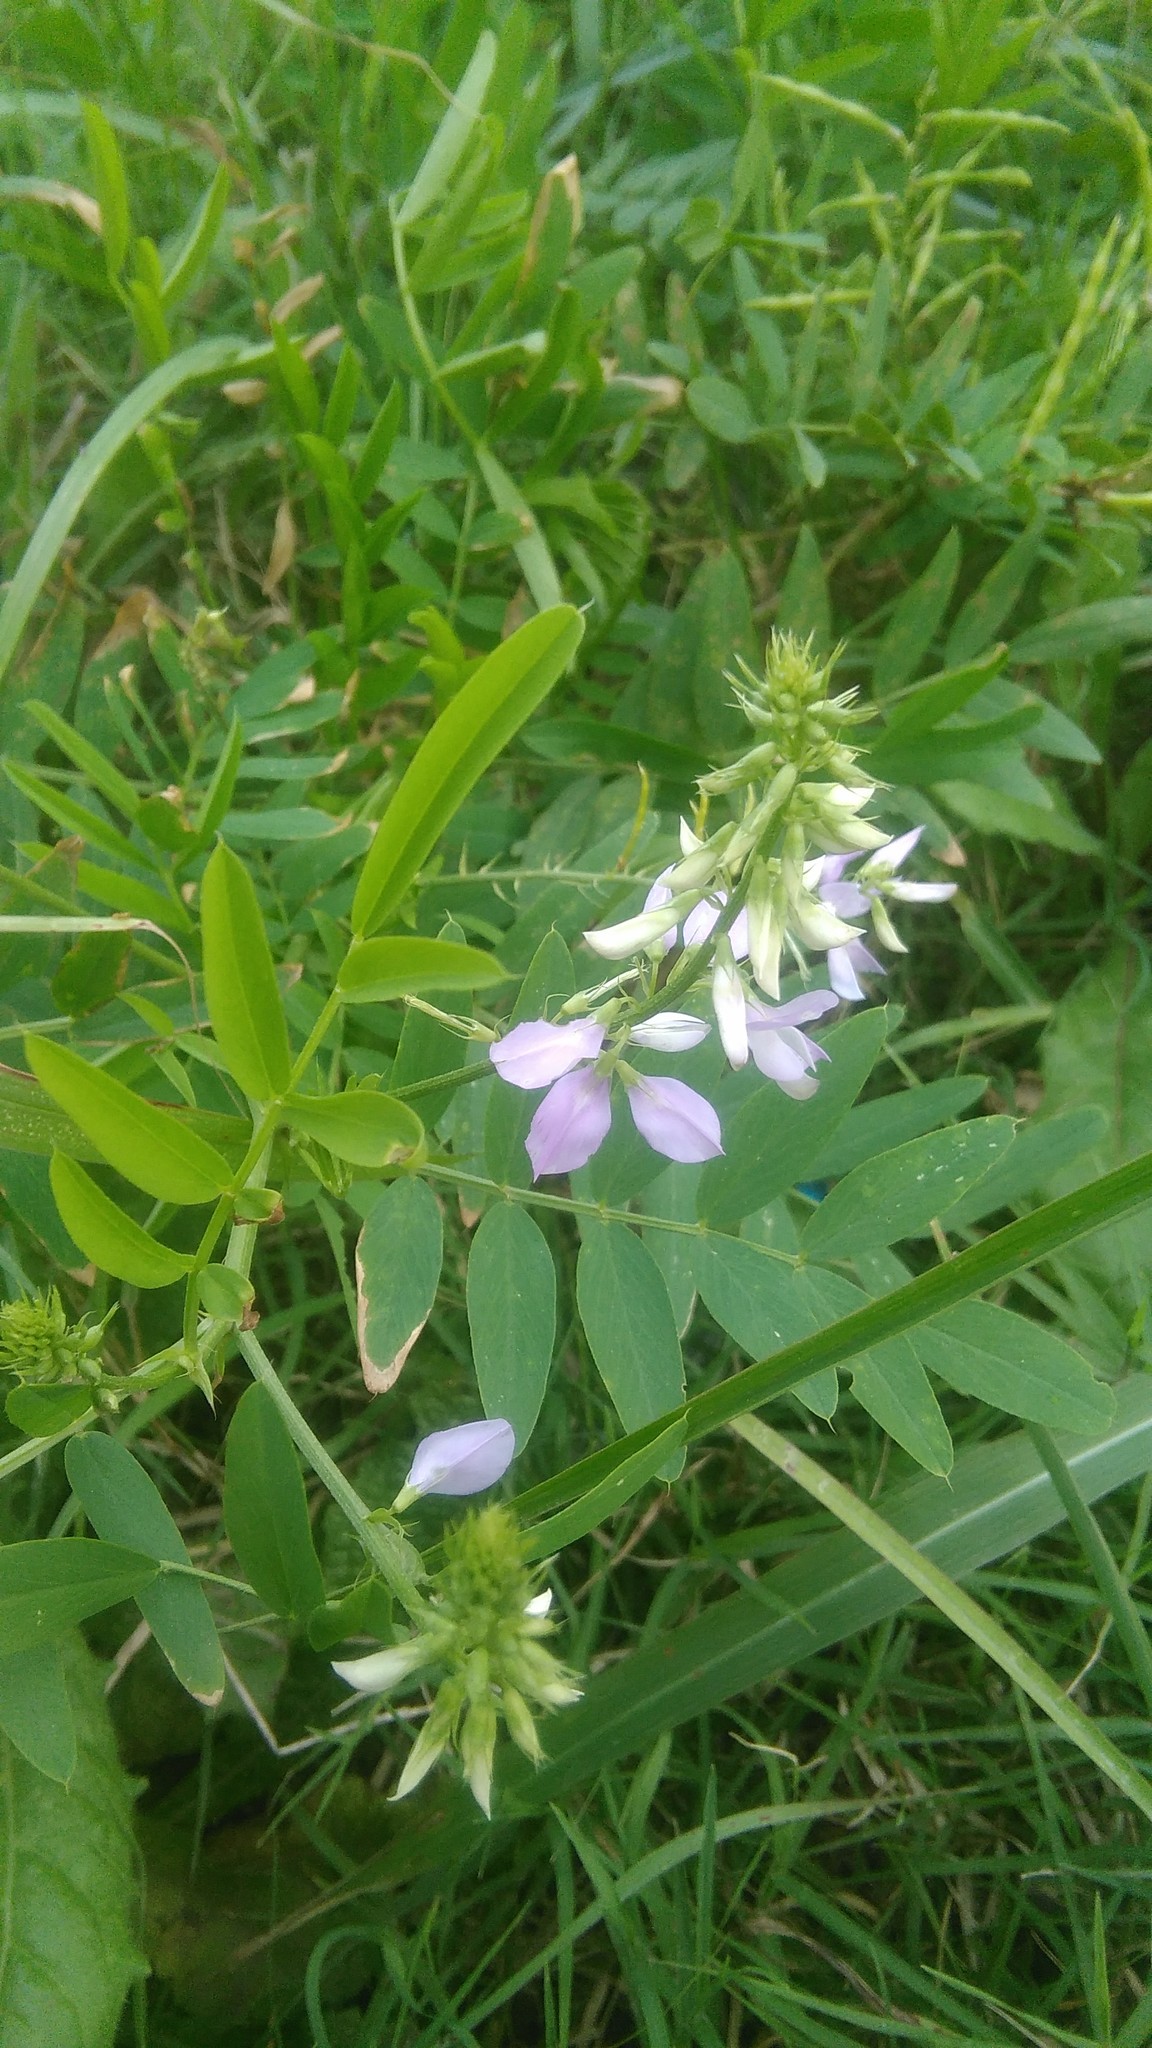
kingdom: Plantae
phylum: Tracheophyta
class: Magnoliopsida
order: Fabales
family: Fabaceae
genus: Galega
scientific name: Galega officinalis
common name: Goat's-rue
